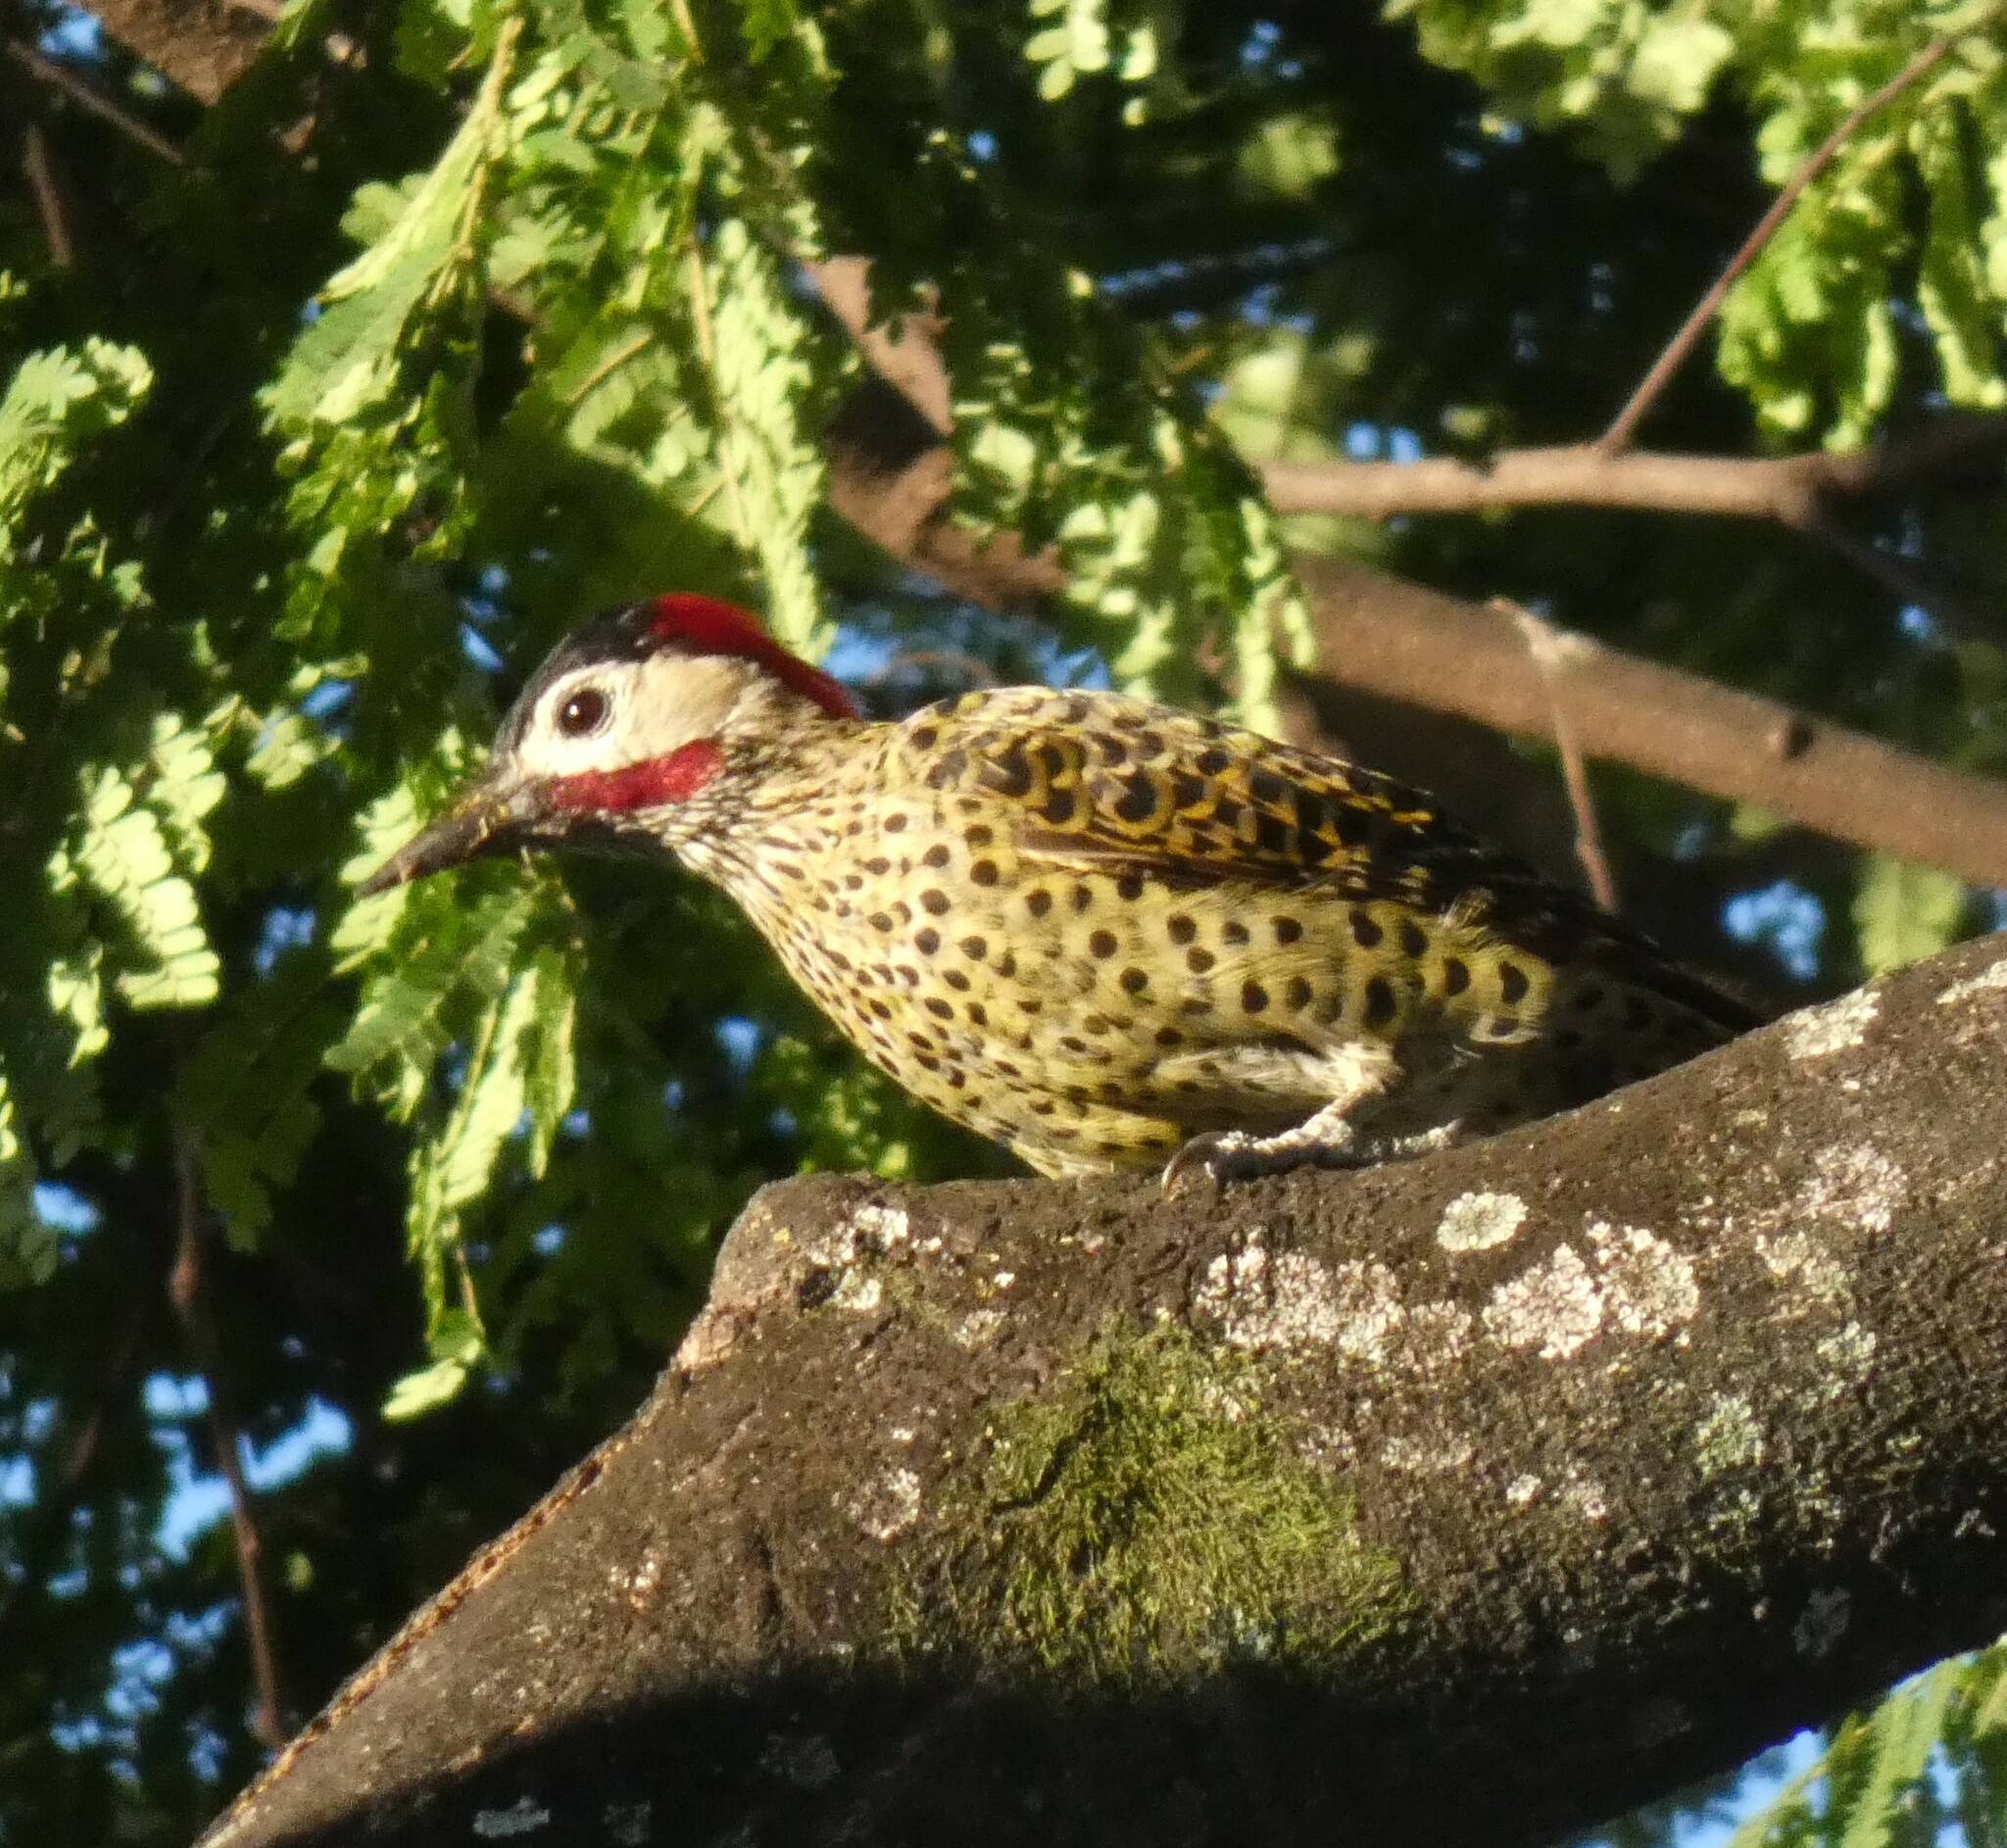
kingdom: Animalia
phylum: Chordata
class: Aves
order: Piciformes
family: Picidae
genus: Colaptes
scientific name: Colaptes melanochloros
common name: Green-barred woodpecker
